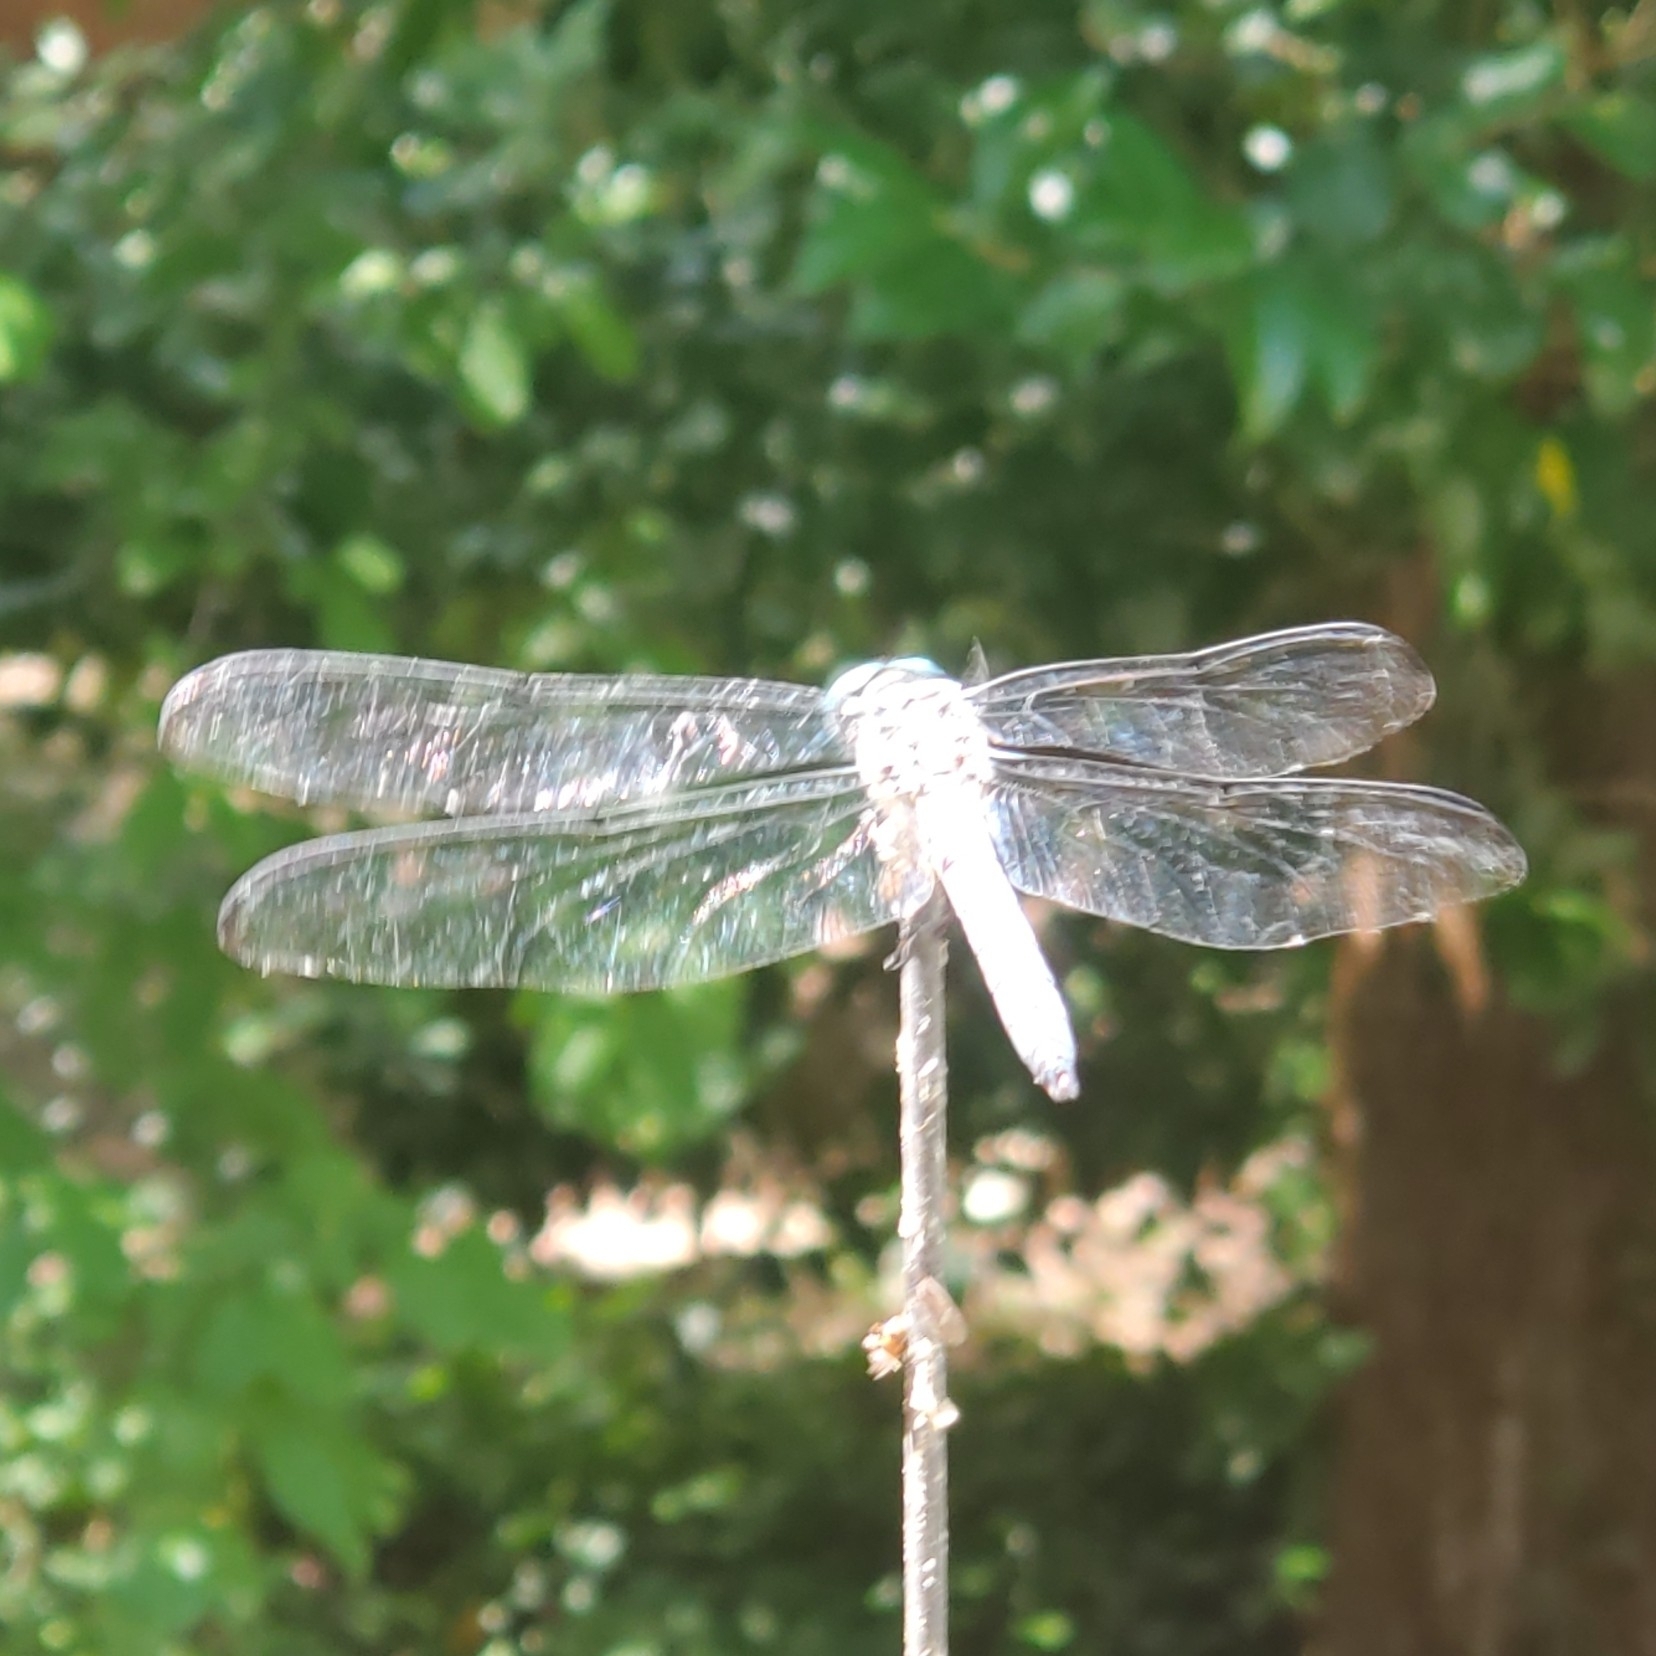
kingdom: Animalia
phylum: Arthropoda
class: Insecta
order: Odonata
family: Libellulidae
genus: Libellula
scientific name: Libellula vibrans
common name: Great blue skimmer
